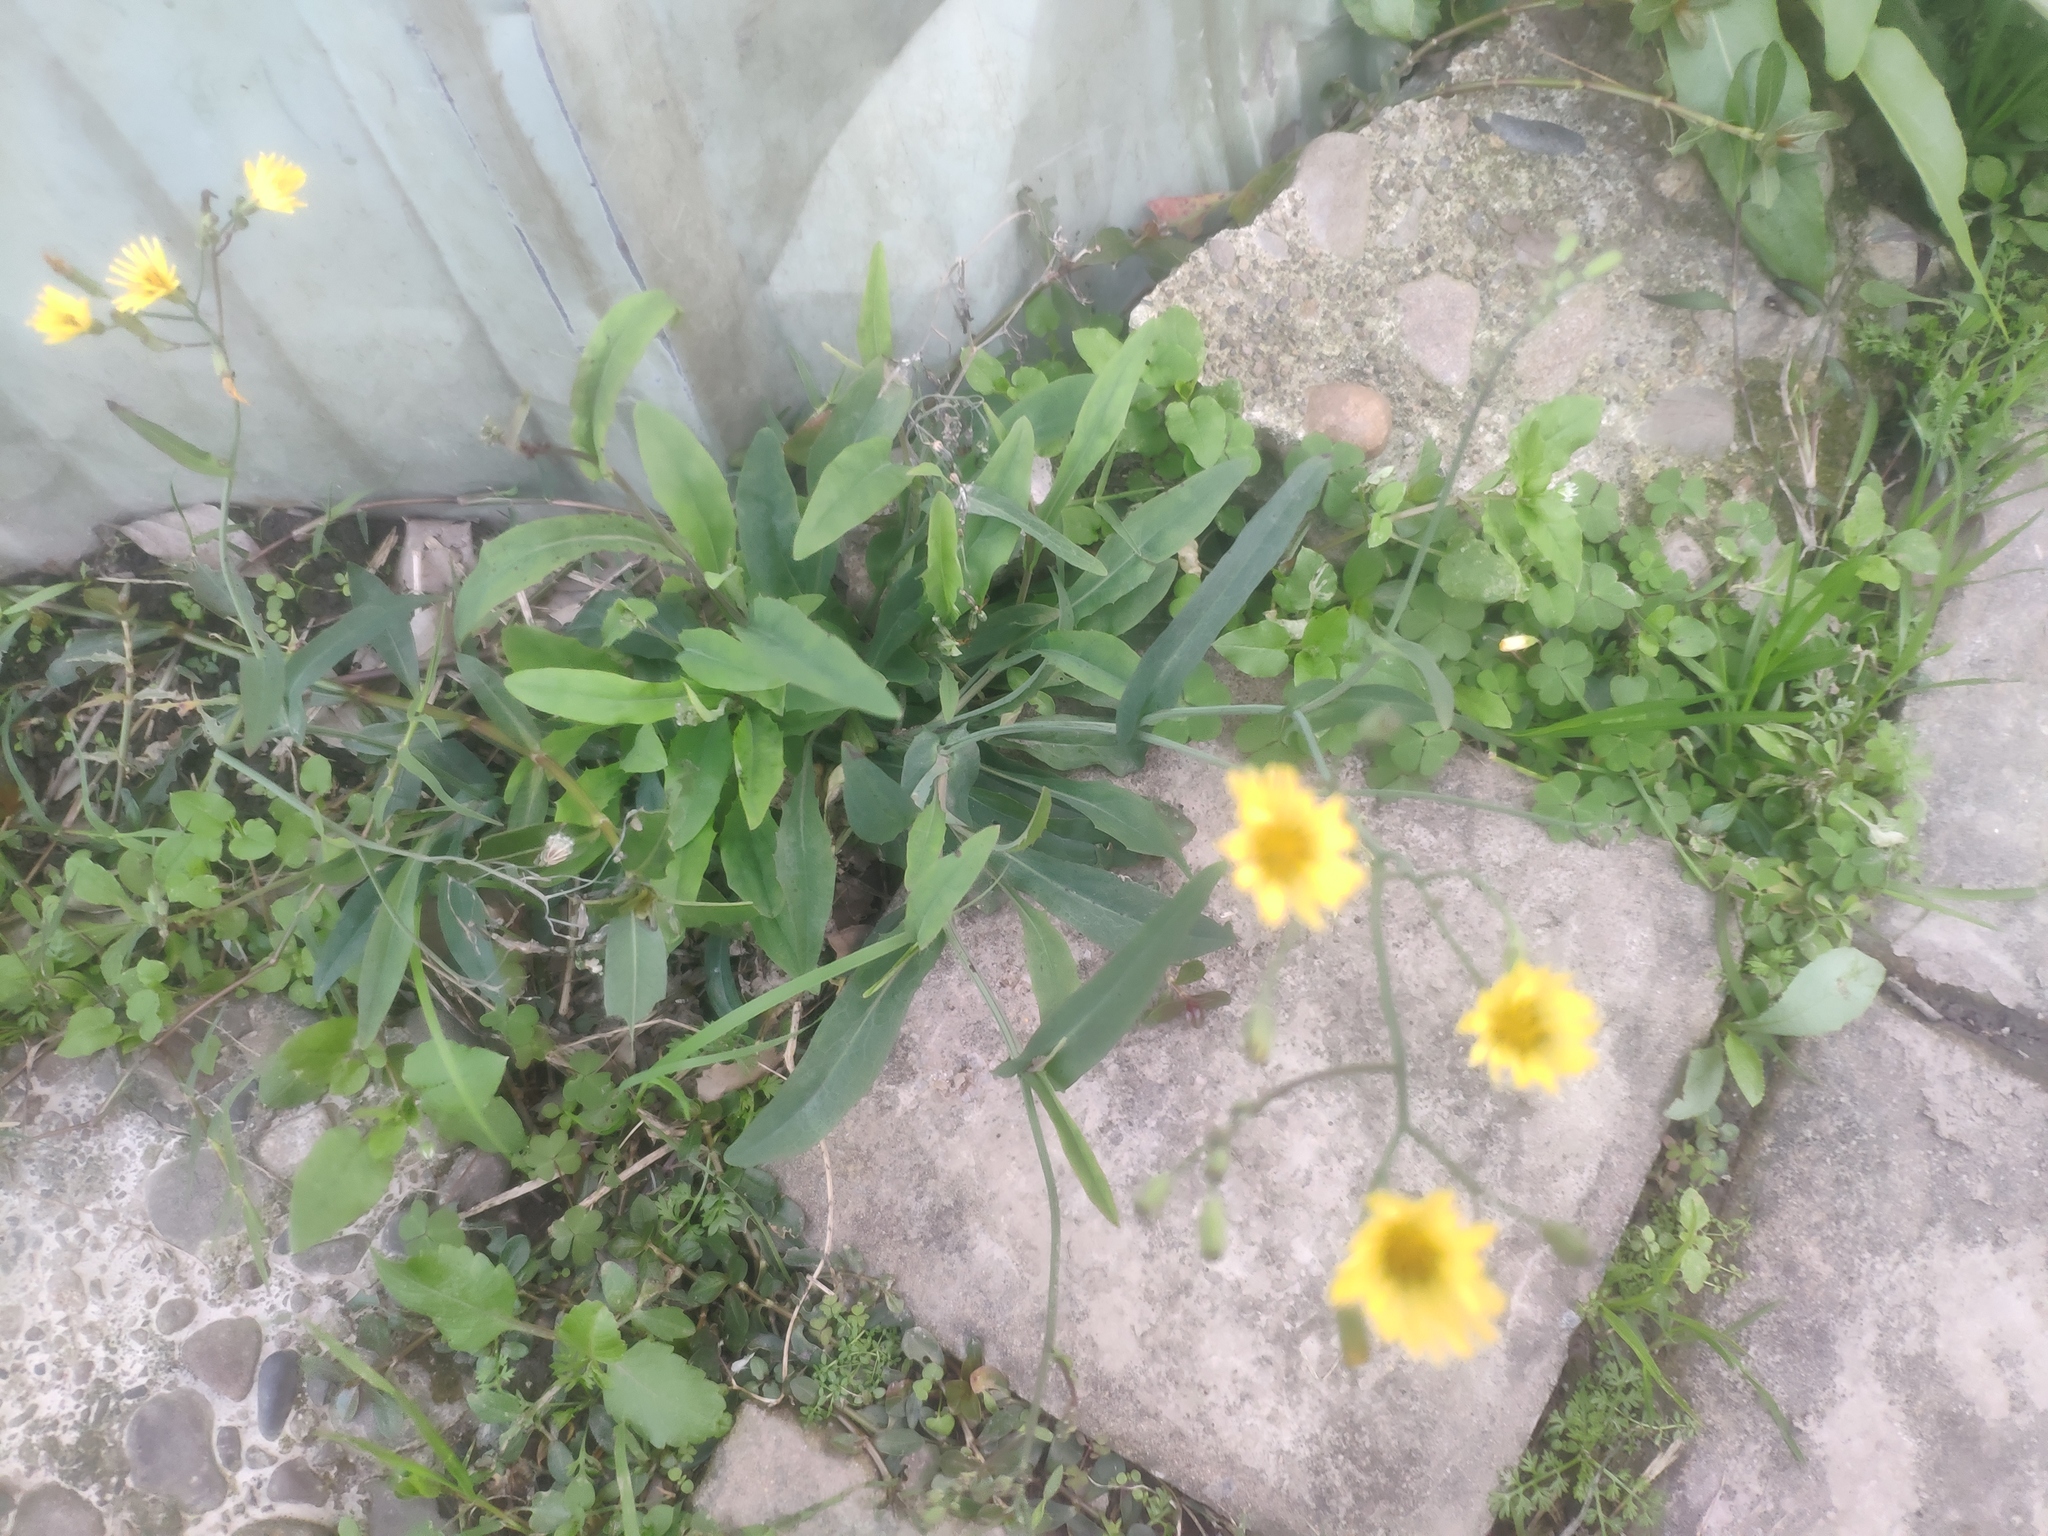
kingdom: Plantae
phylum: Tracheophyta
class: Magnoliopsida
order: Asterales
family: Asteraceae
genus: Ixeris
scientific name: Ixeris chinensis
